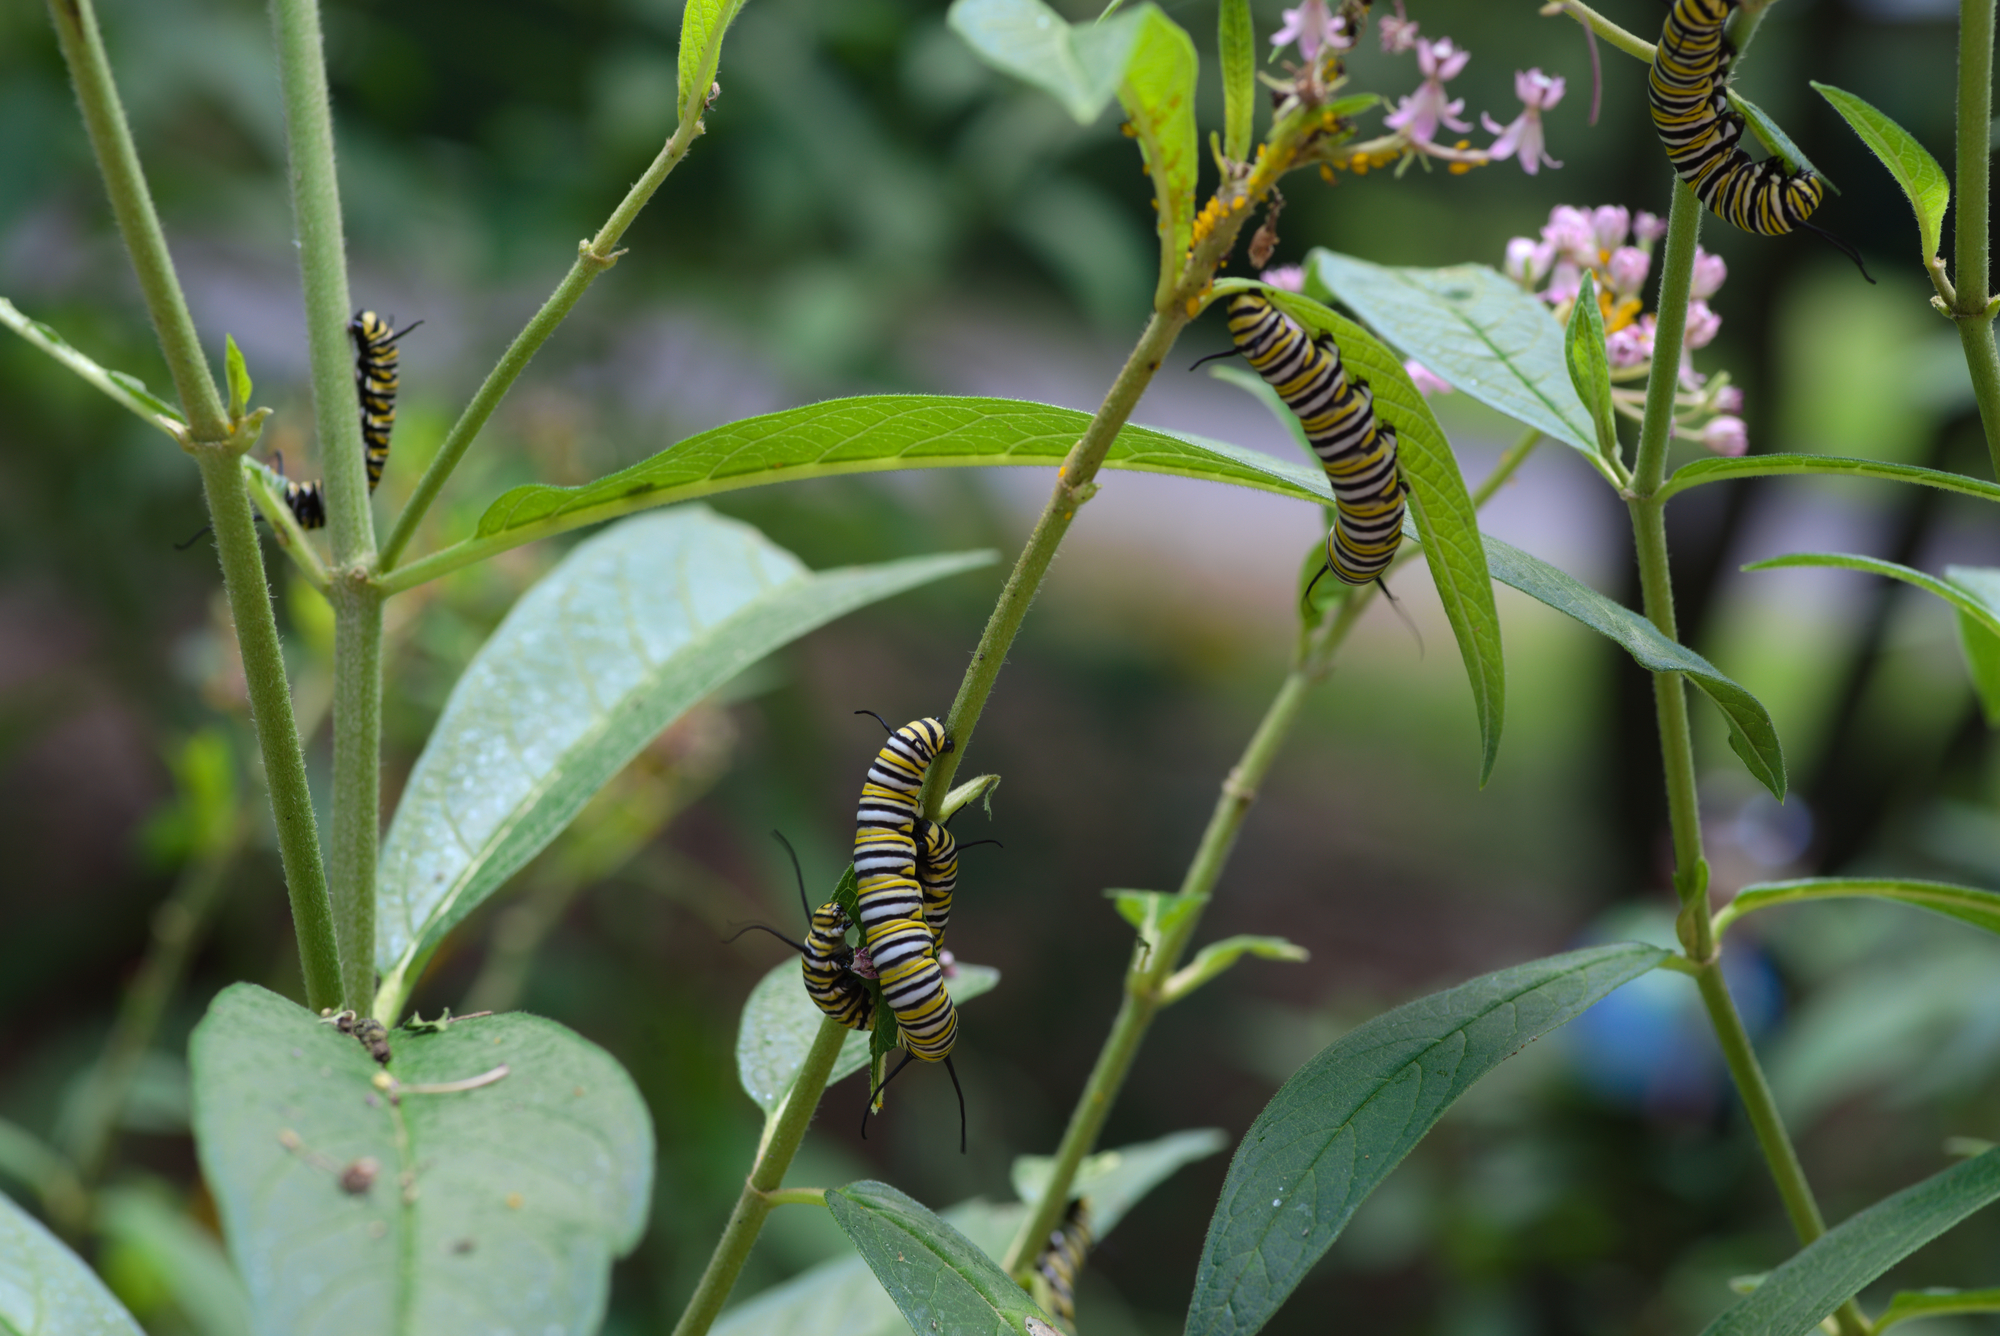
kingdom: Animalia
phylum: Arthropoda
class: Insecta
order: Lepidoptera
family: Nymphalidae
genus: Danaus
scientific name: Danaus plexippus
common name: Monarch
